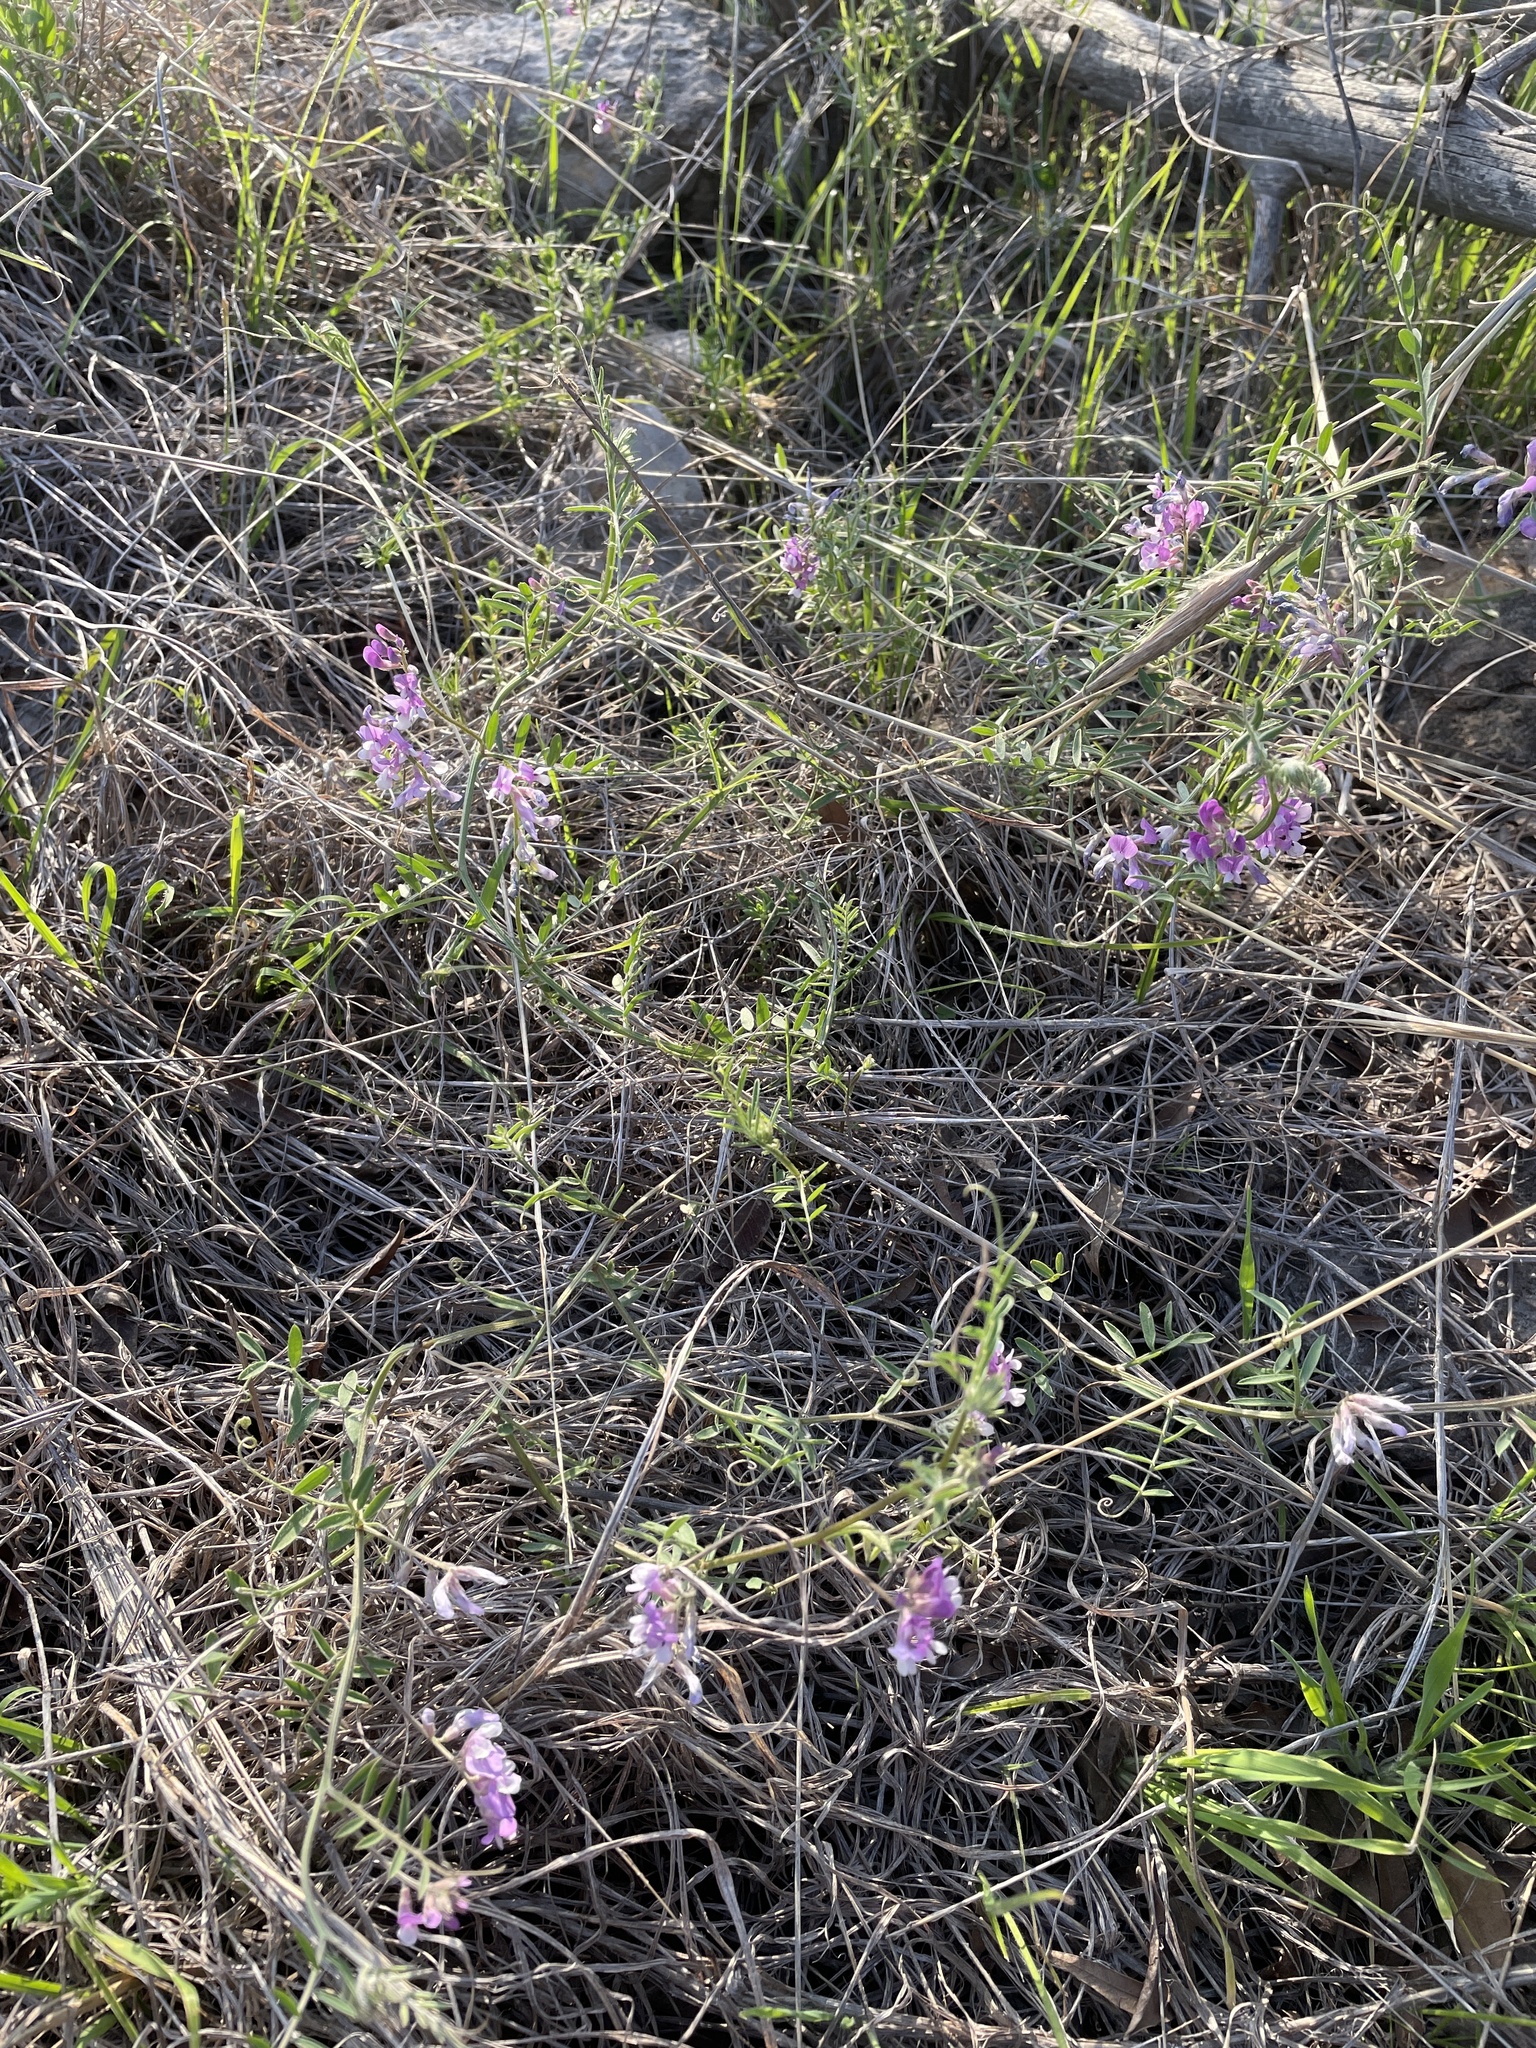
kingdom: Plantae
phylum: Tracheophyta
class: Magnoliopsida
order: Fabales
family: Fabaceae
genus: Vicia
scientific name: Vicia ludoviciana
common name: Louisiana vetch
